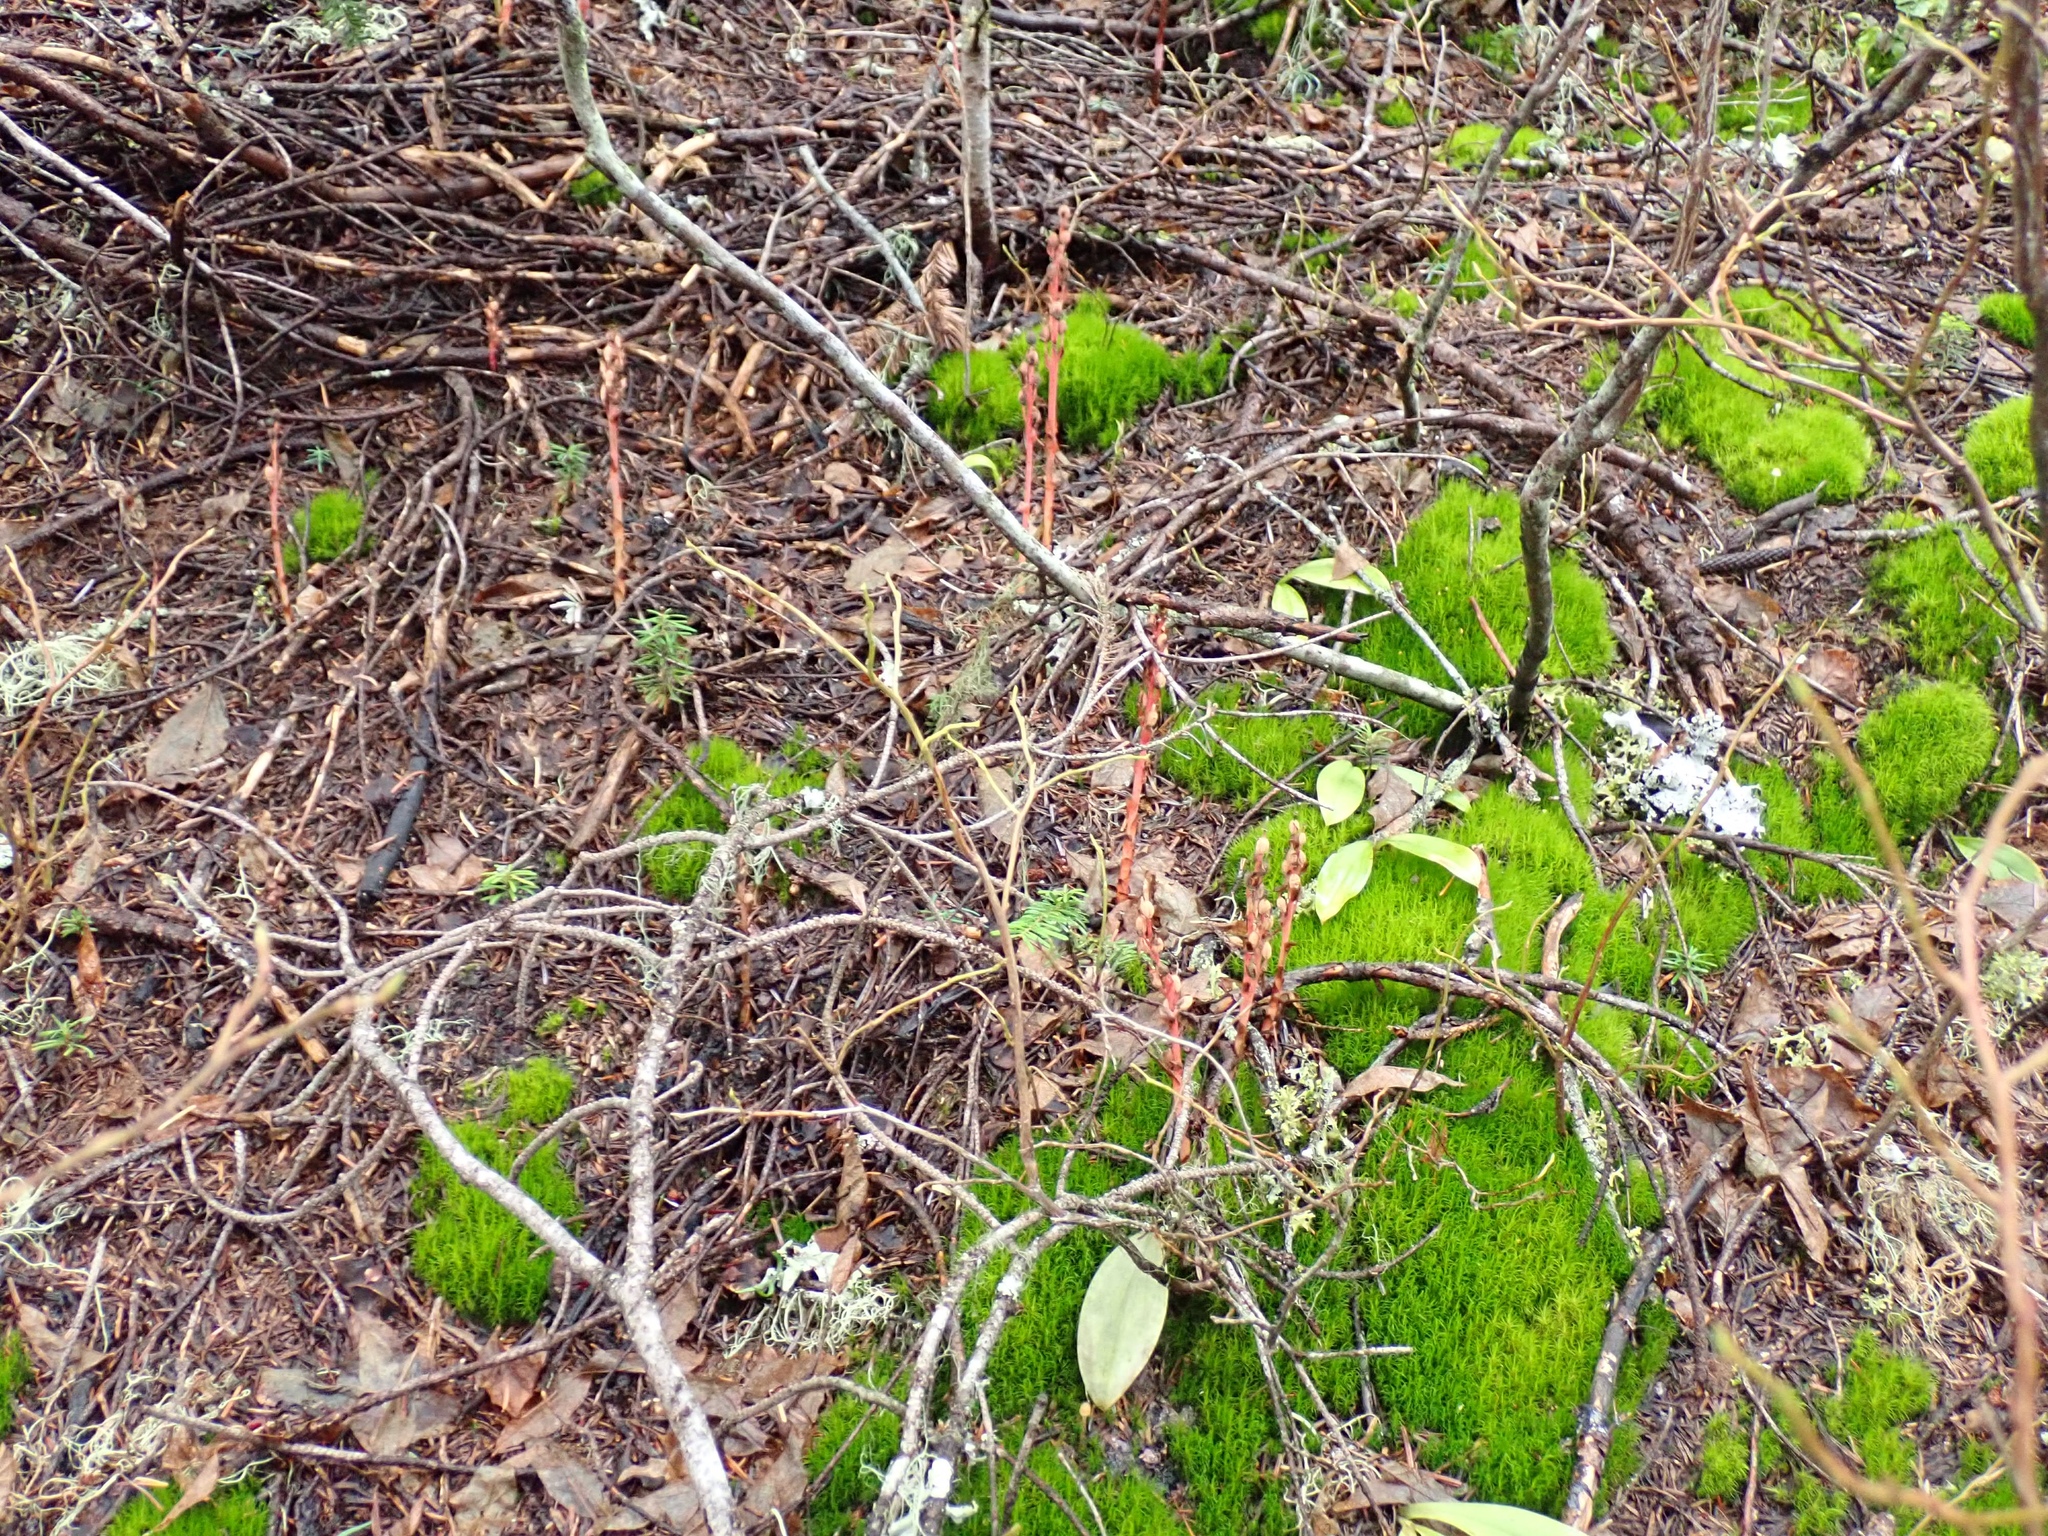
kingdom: Plantae
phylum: Tracheophyta
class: Magnoliopsida
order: Ericales
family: Ericaceae
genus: Hypopitys
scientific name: Hypopitys monotropa
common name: Yellow bird's-nest
